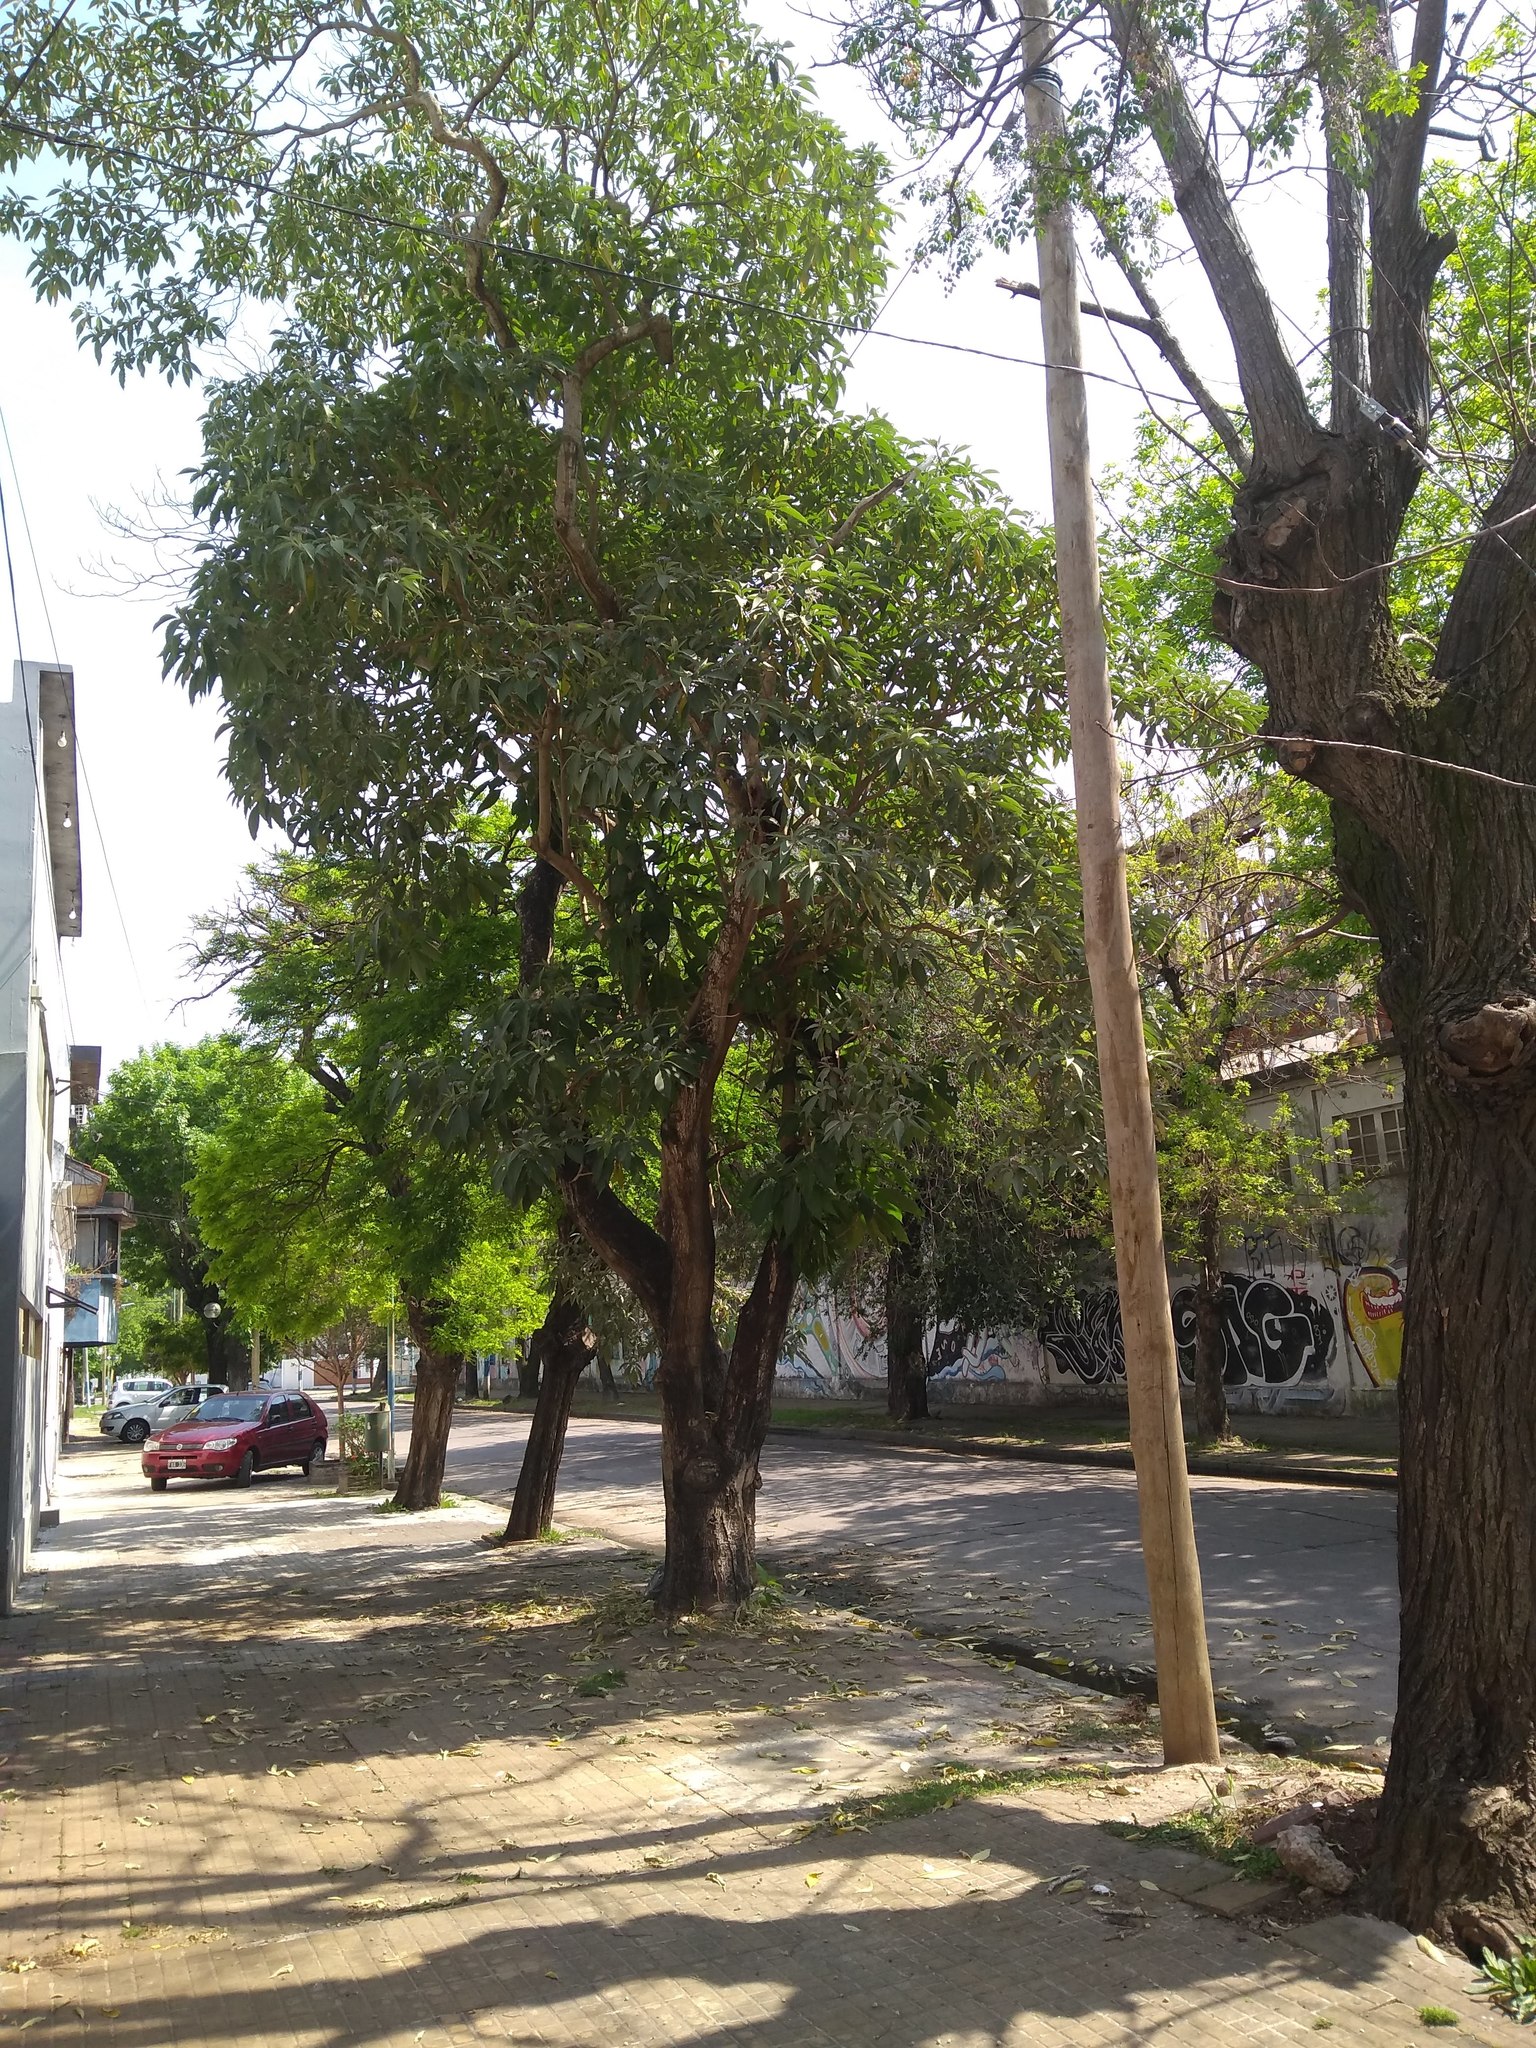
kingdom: Plantae
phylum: Tracheophyta
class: Magnoliopsida
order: Solanales
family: Solanaceae
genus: Solanum
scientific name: Solanum granulosoleprosum
